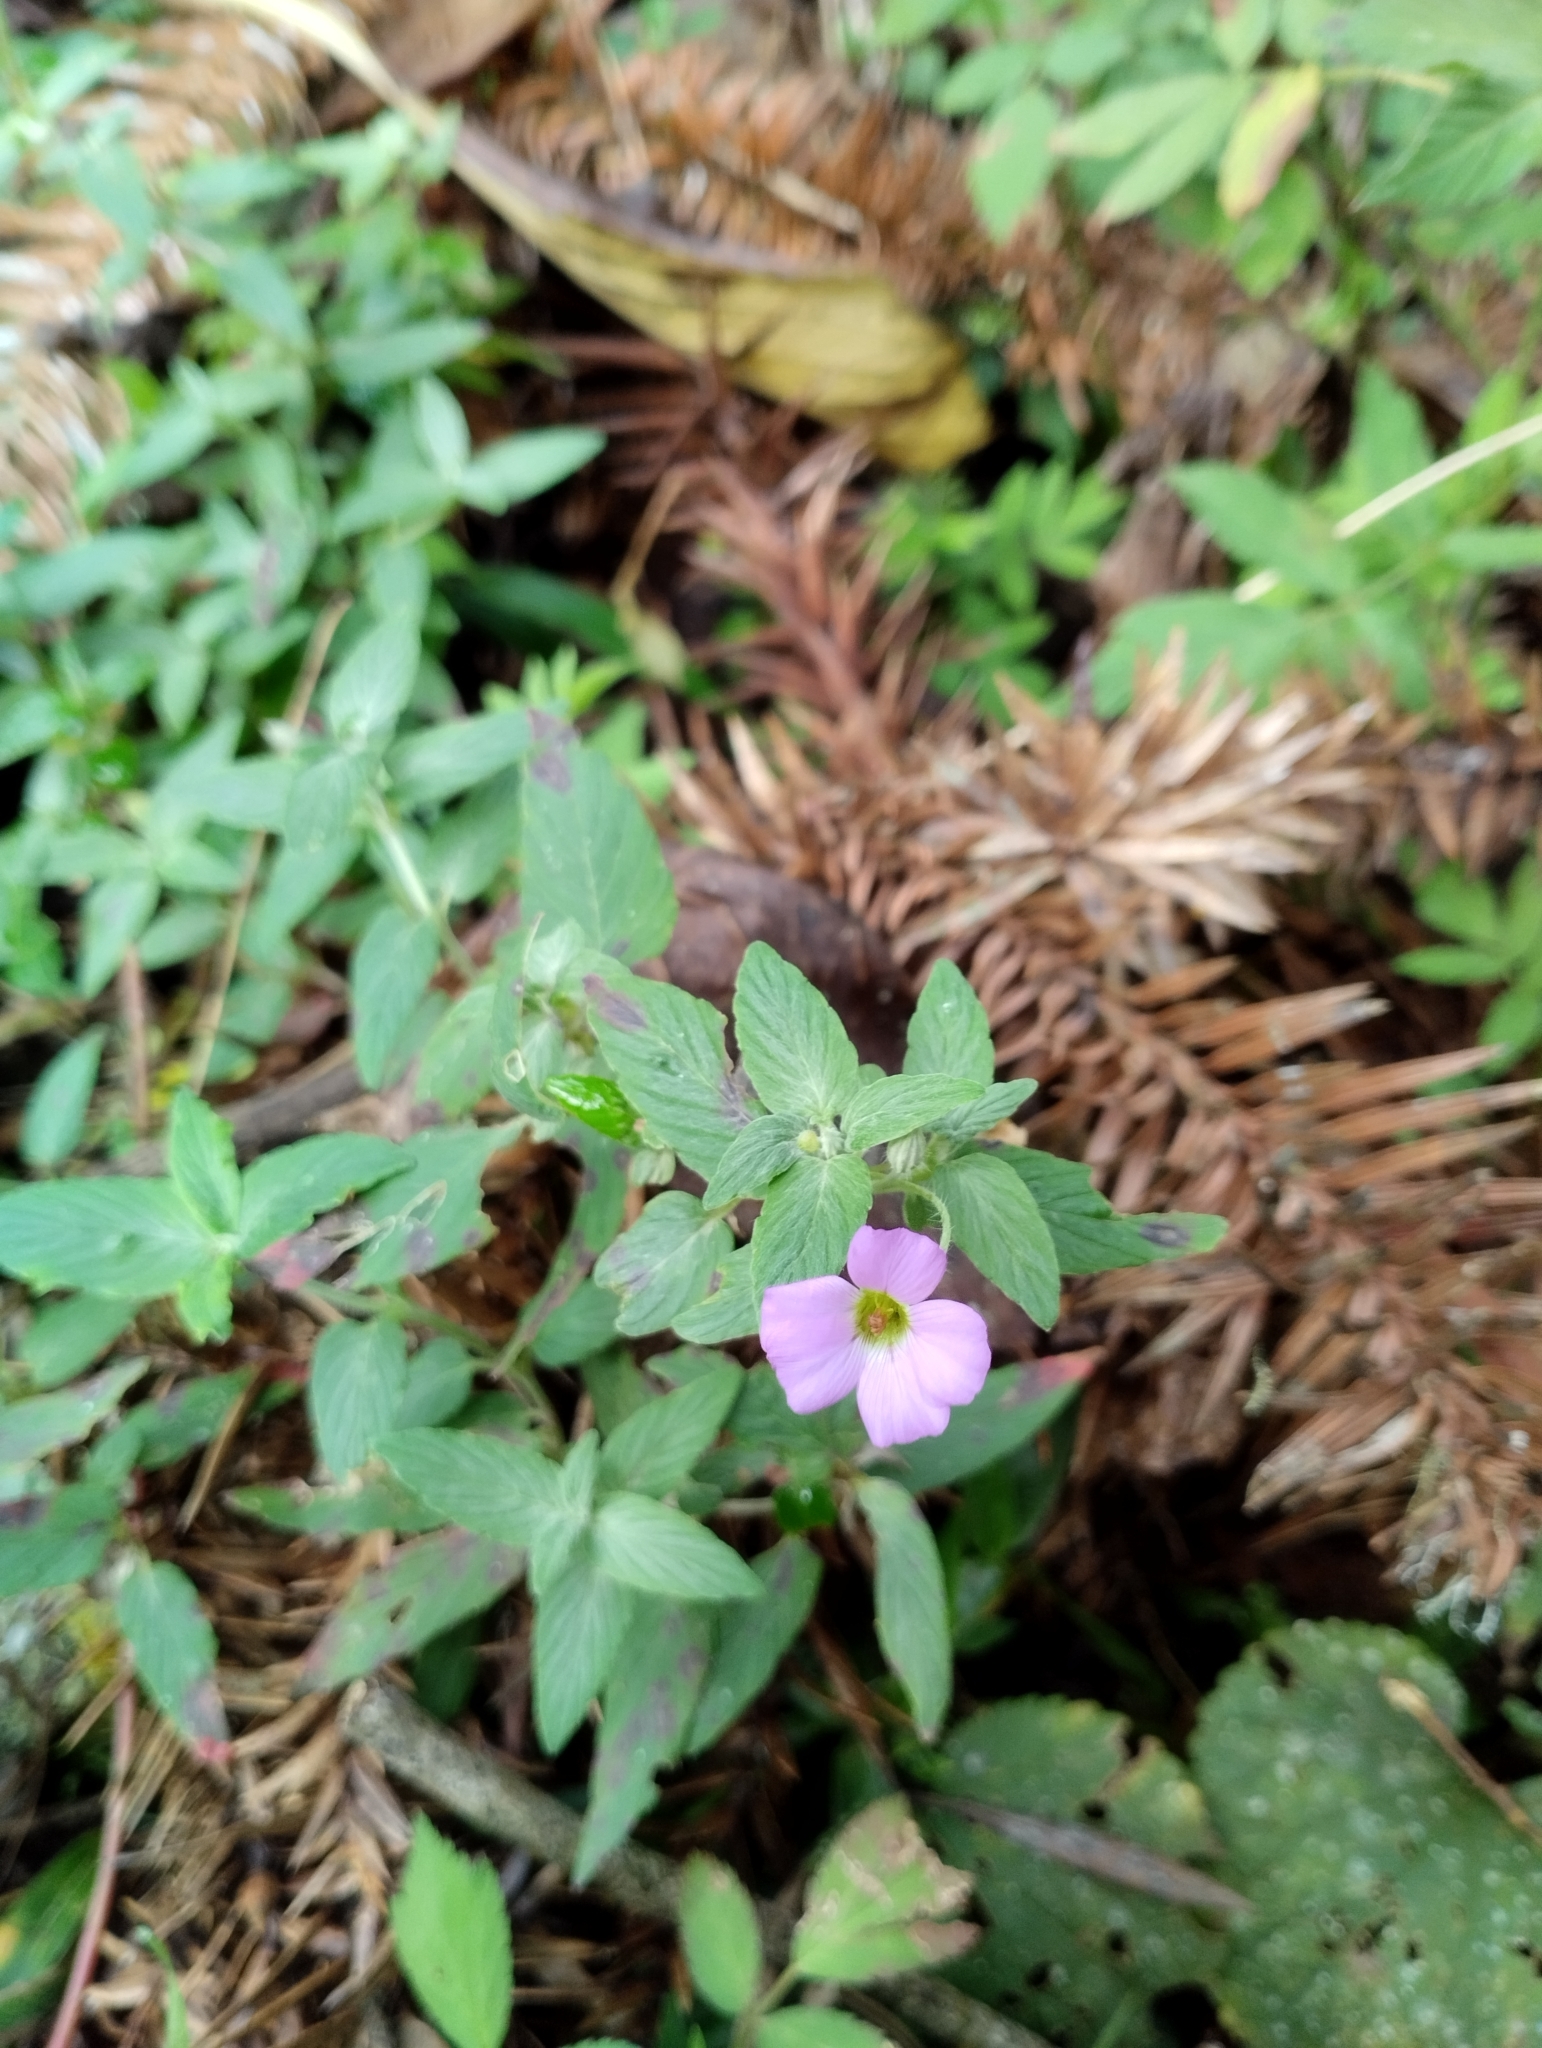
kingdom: Plantae
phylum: Tracheophyta
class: Magnoliopsida
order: Geraniales
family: Vivianiaceae
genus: Viviania
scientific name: Viviania albiflora
